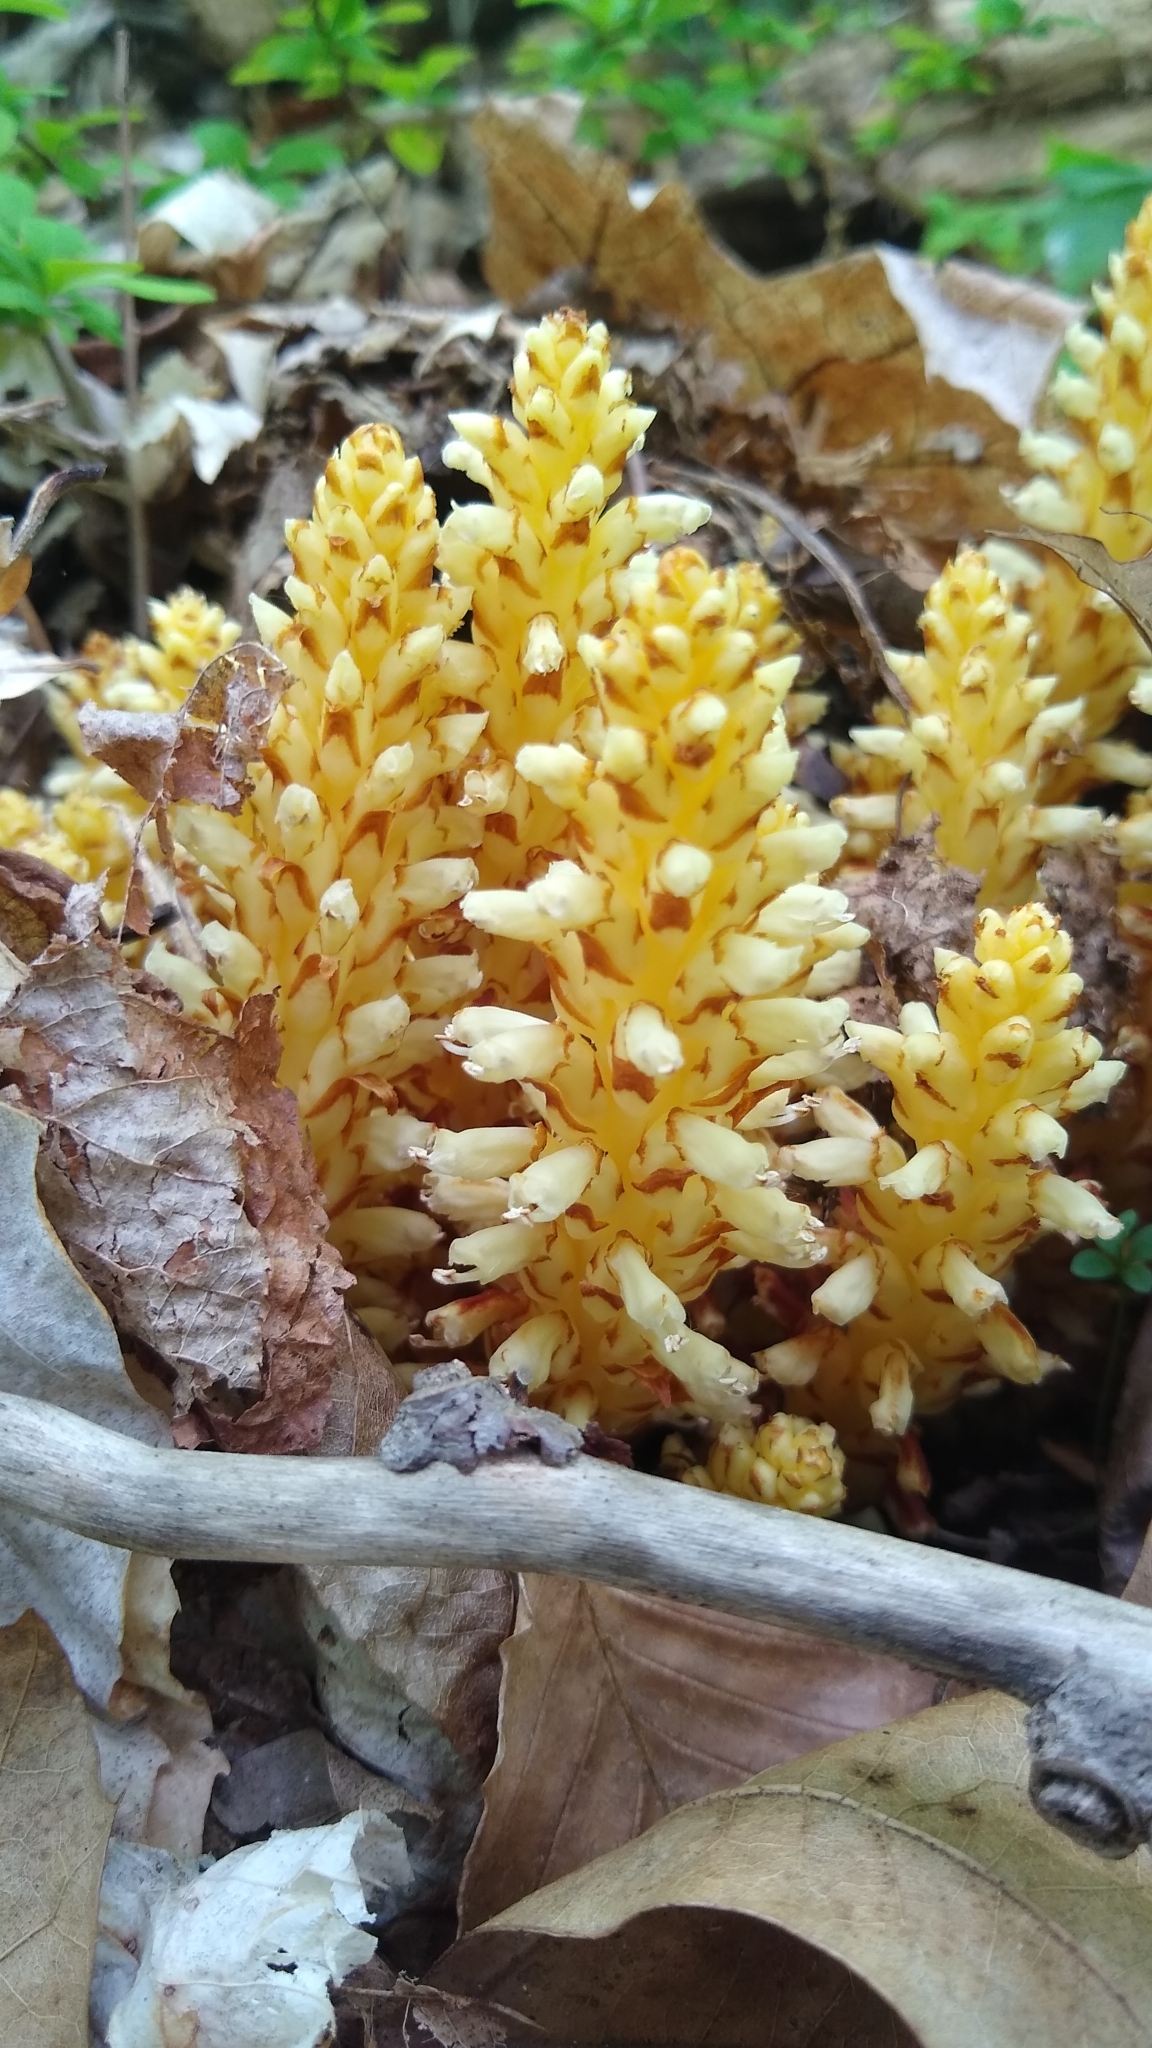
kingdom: Plantae
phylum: Tracheophyta
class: Magnoliopsida
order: Lamiales
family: Orobanchaceae
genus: Conopholis
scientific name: Conopholis americana
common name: American cancer-root
